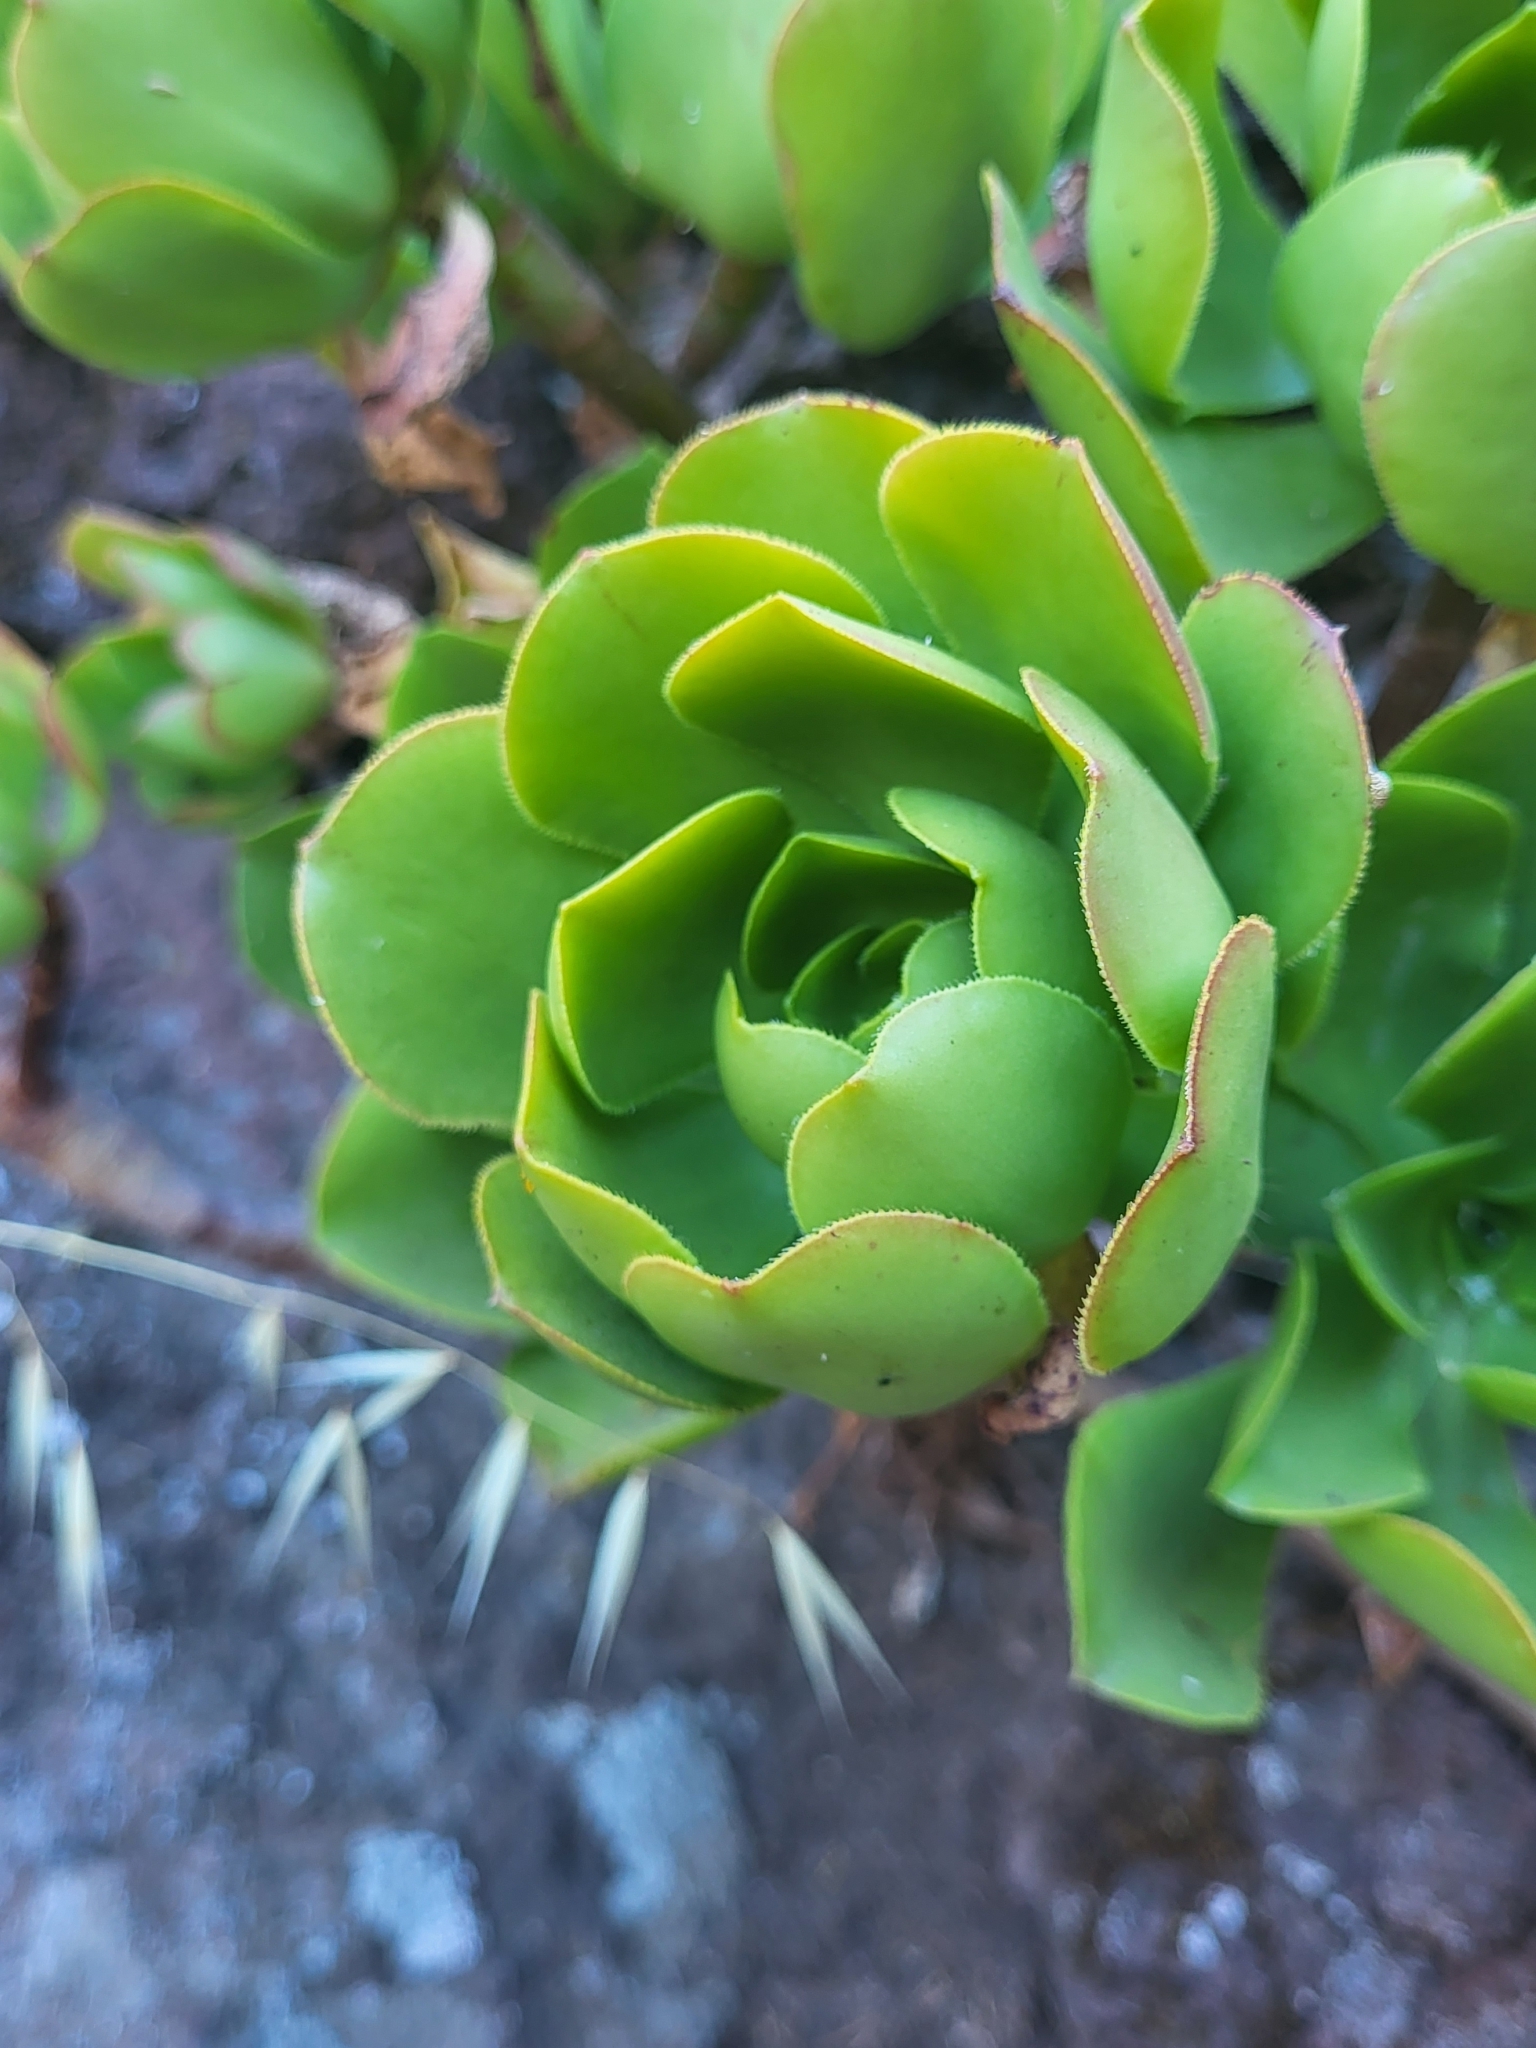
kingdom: Plantae
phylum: Tracheophyta
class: Magnoliopsida
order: Saxifragales
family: Crassulaceae
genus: Aeonium
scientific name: Aeonium glutinosum
